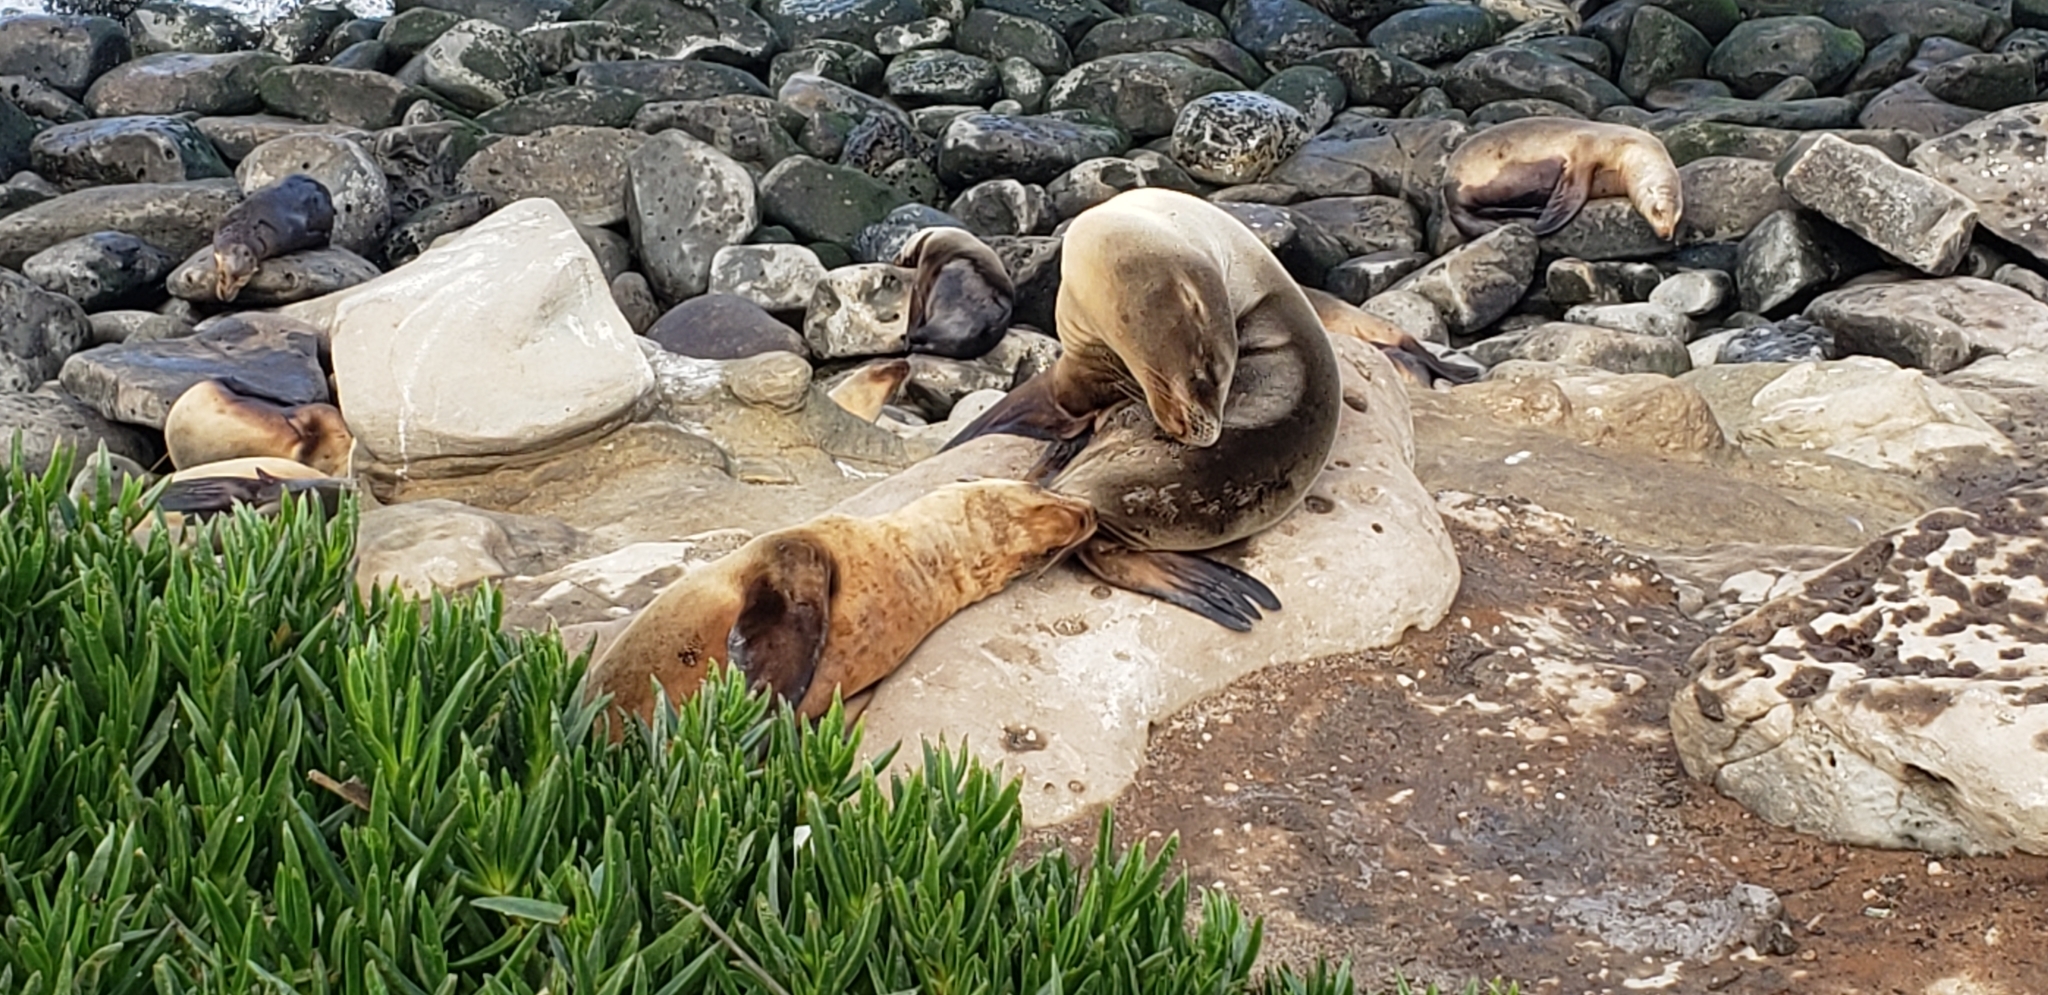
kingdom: Animalia
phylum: Chordata
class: Mammalia
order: Carnivora
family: Otariidae
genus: Zalophus
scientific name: Zalophus californianus
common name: California sea lion
